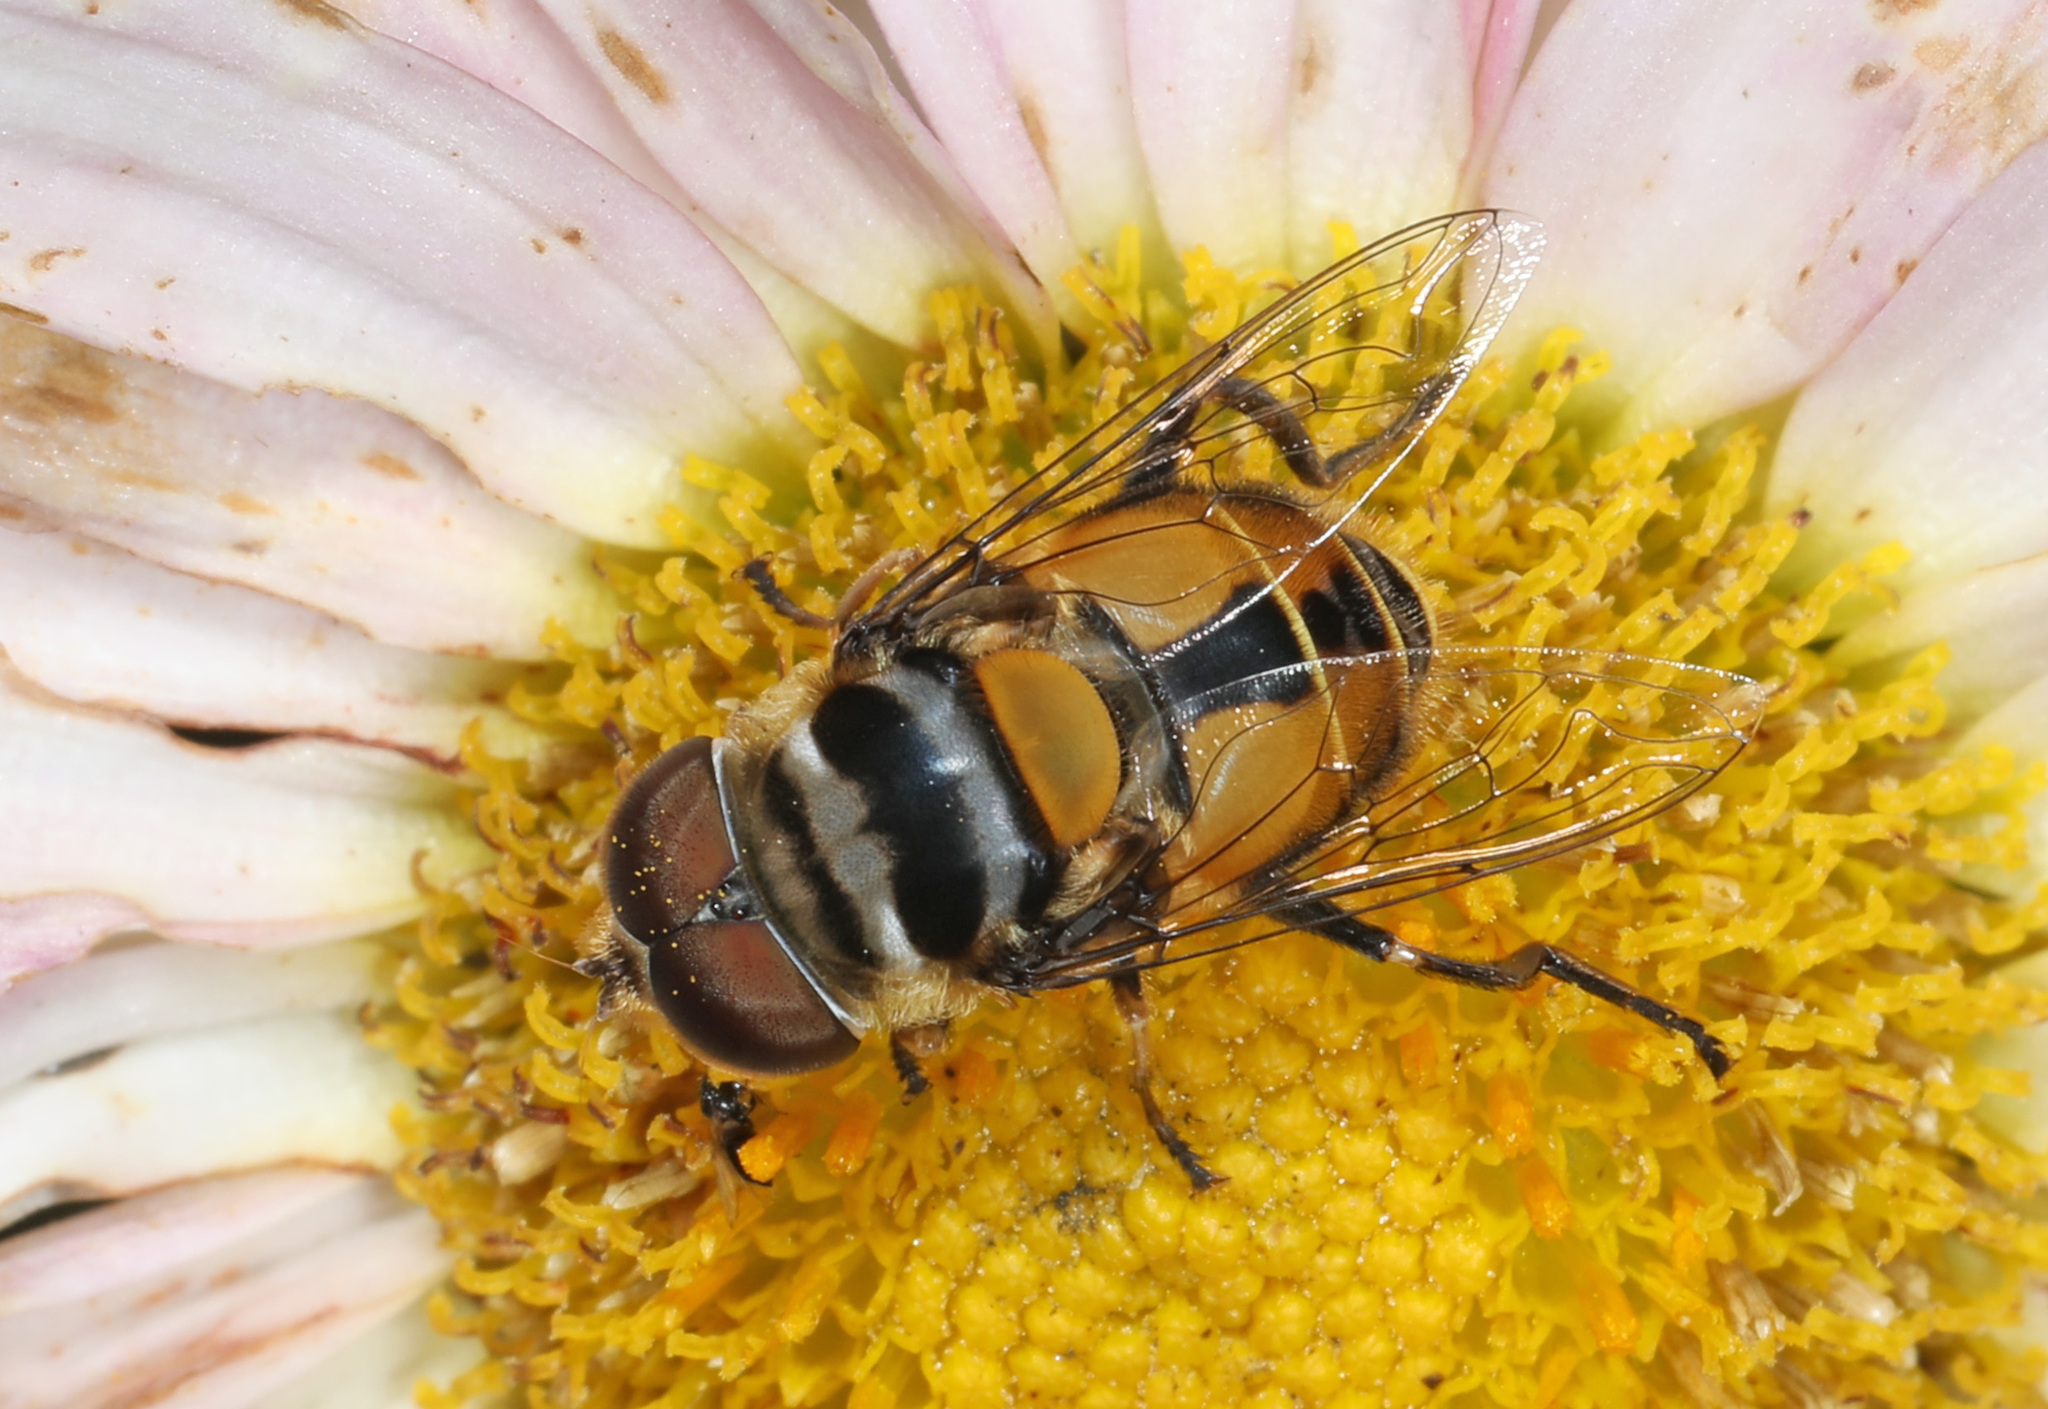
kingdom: Animalia
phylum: Arthropoda
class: Insecta
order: Diptera
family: Syrphidae
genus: Palpada
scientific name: Palpada agrorum
